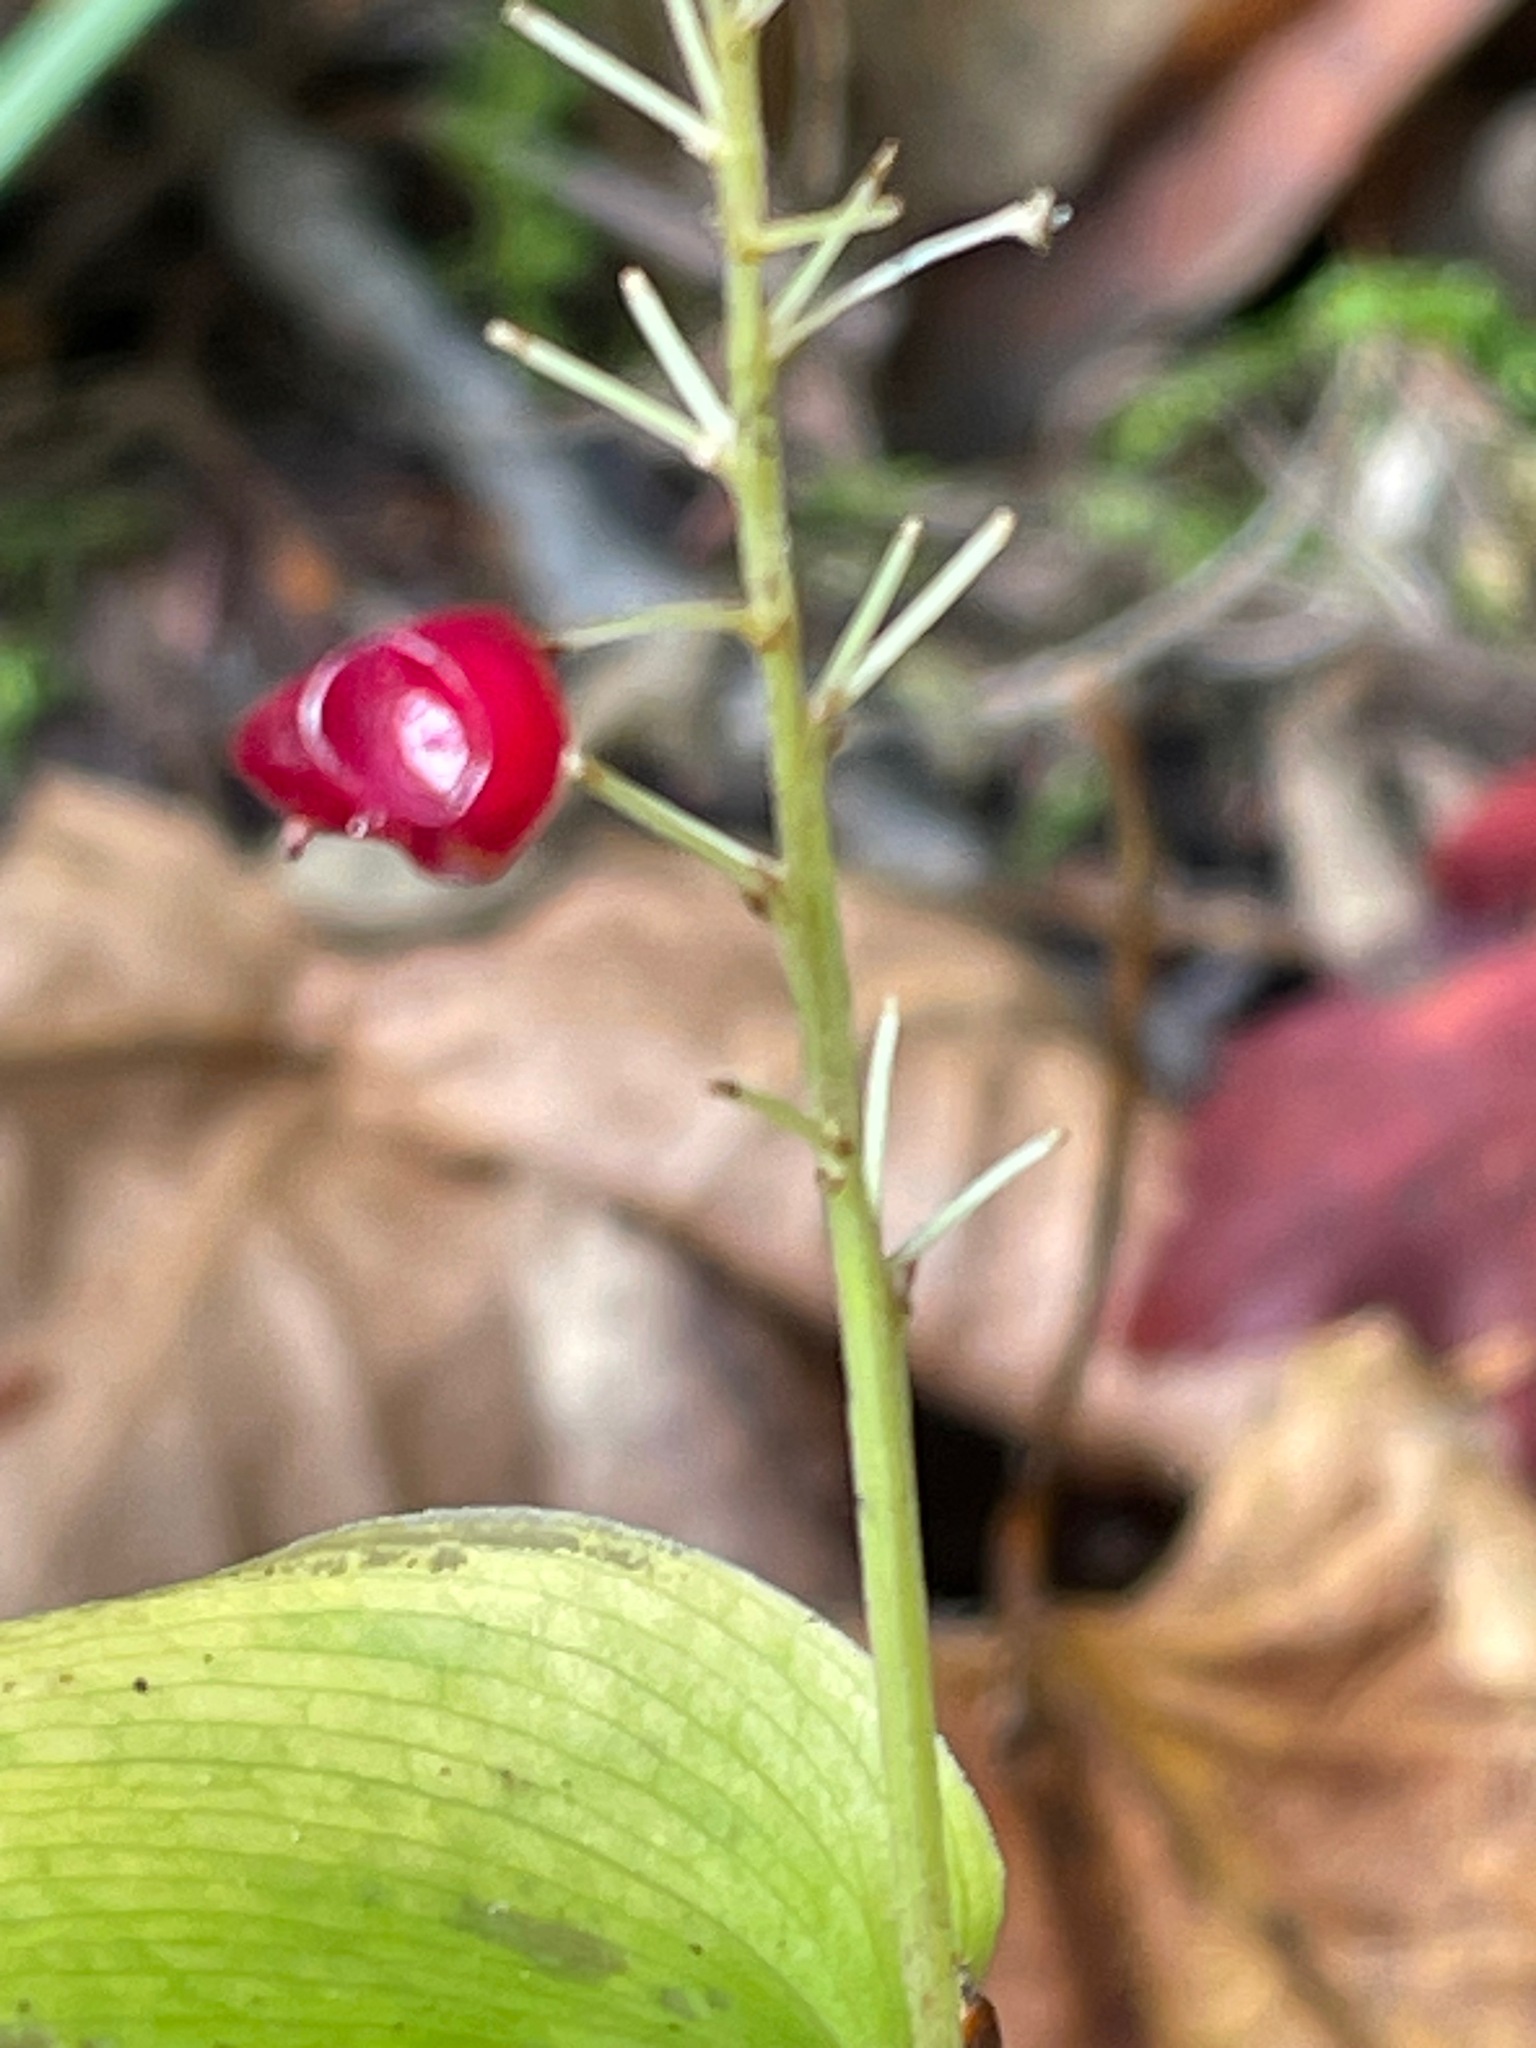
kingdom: Plantae
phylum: Tracheophyta
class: Liliopsida
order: Asparagales
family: Asparagaceae
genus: Maianthemum
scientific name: Maianthemum canadense
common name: False lily-of-the-valley
